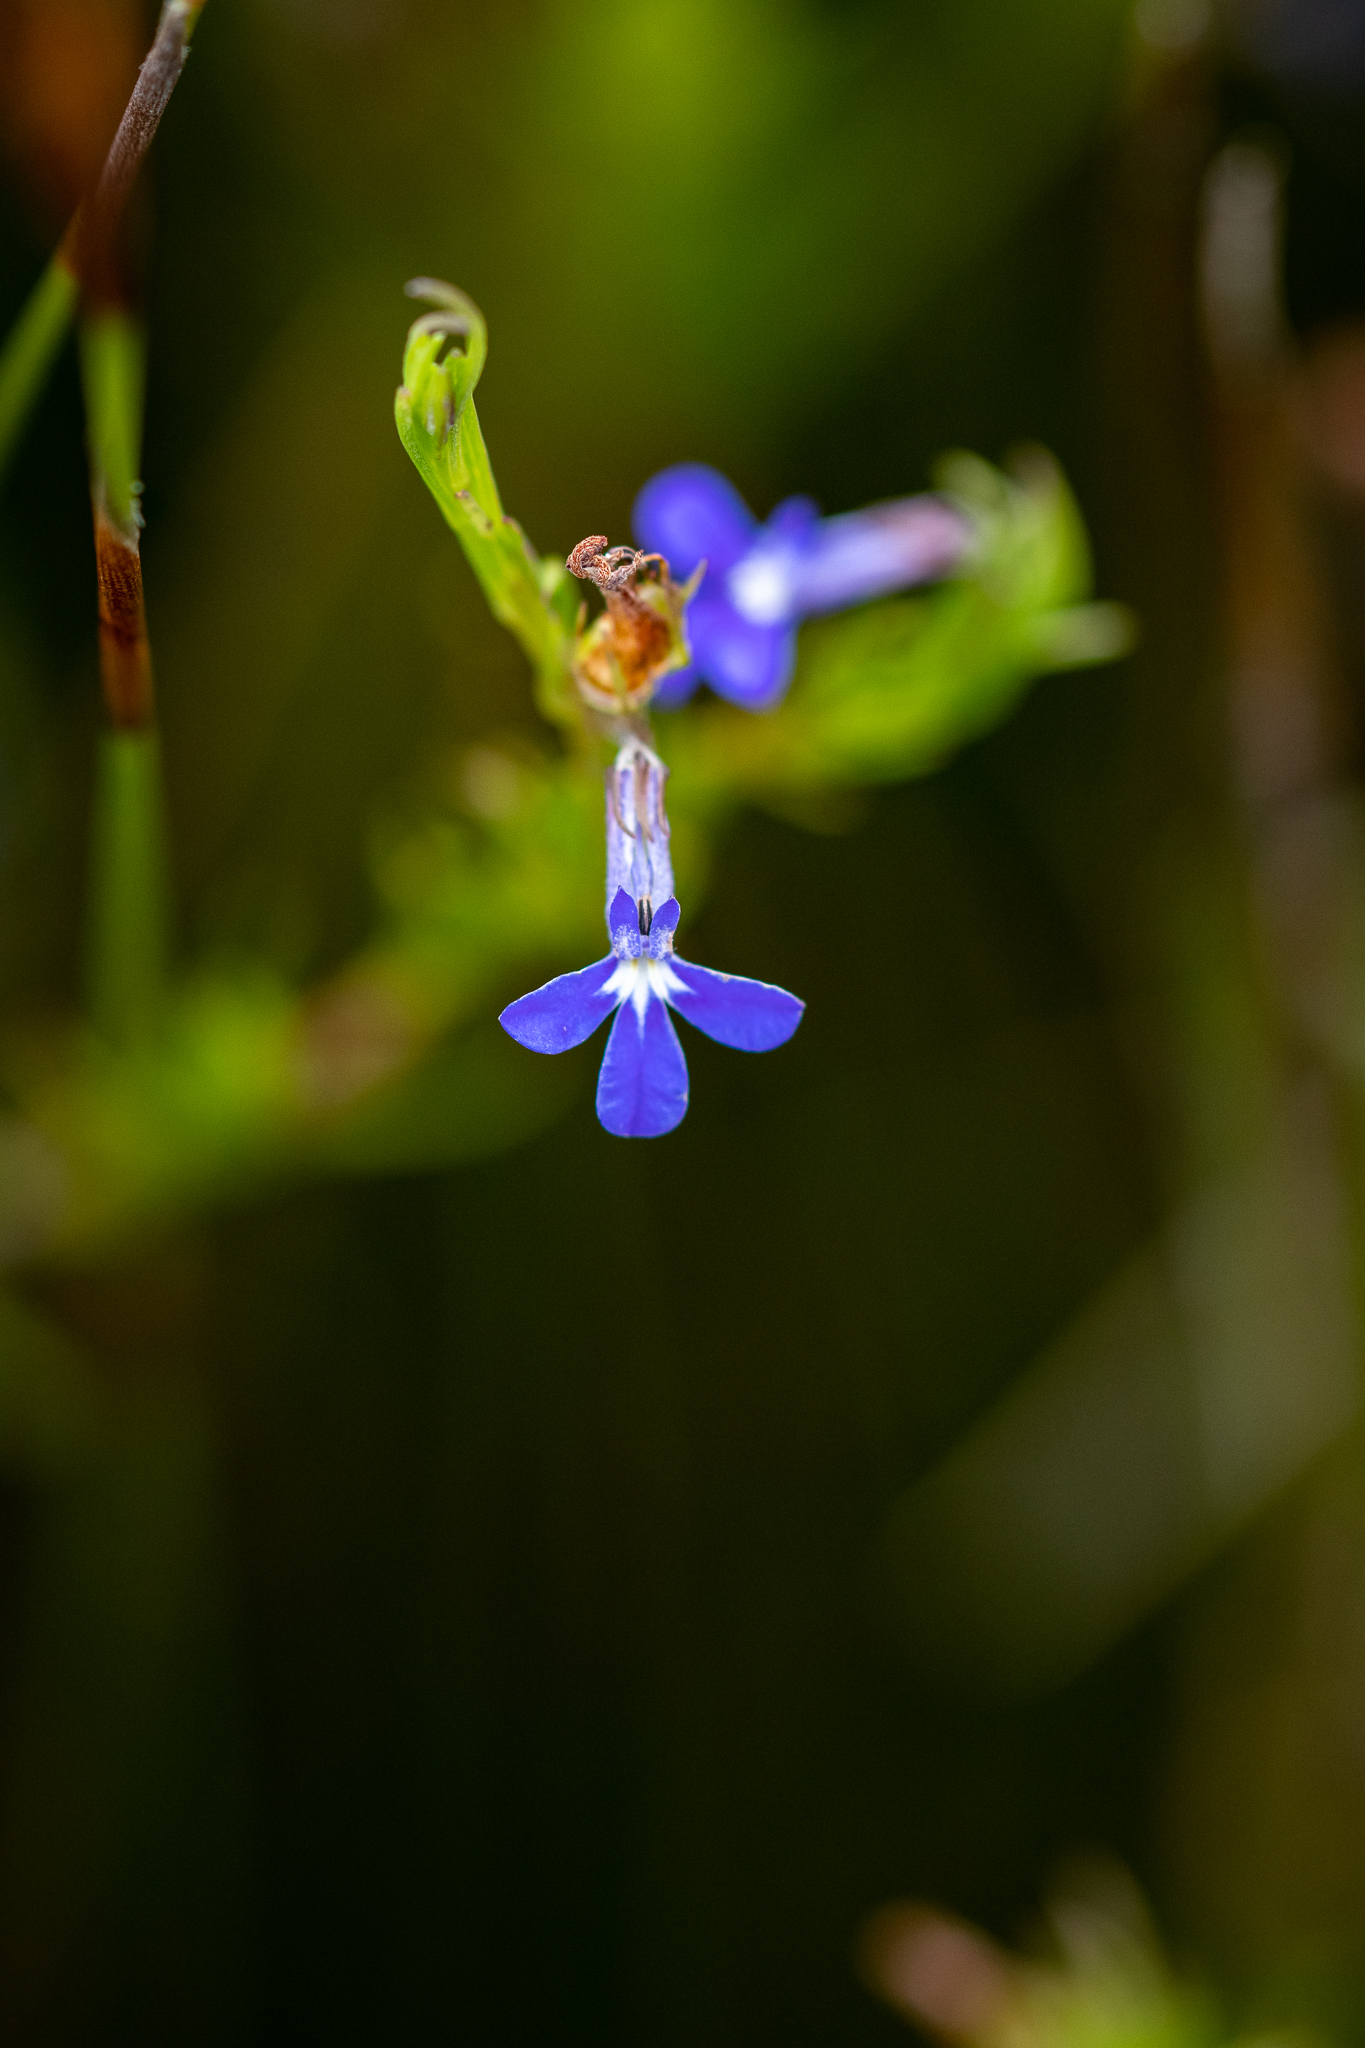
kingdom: Plantae
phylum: Tracheophyta
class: Magnoliopsida
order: Asterales
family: Campanulaceae
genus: Lobelia
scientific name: Lobelia pinifolia
